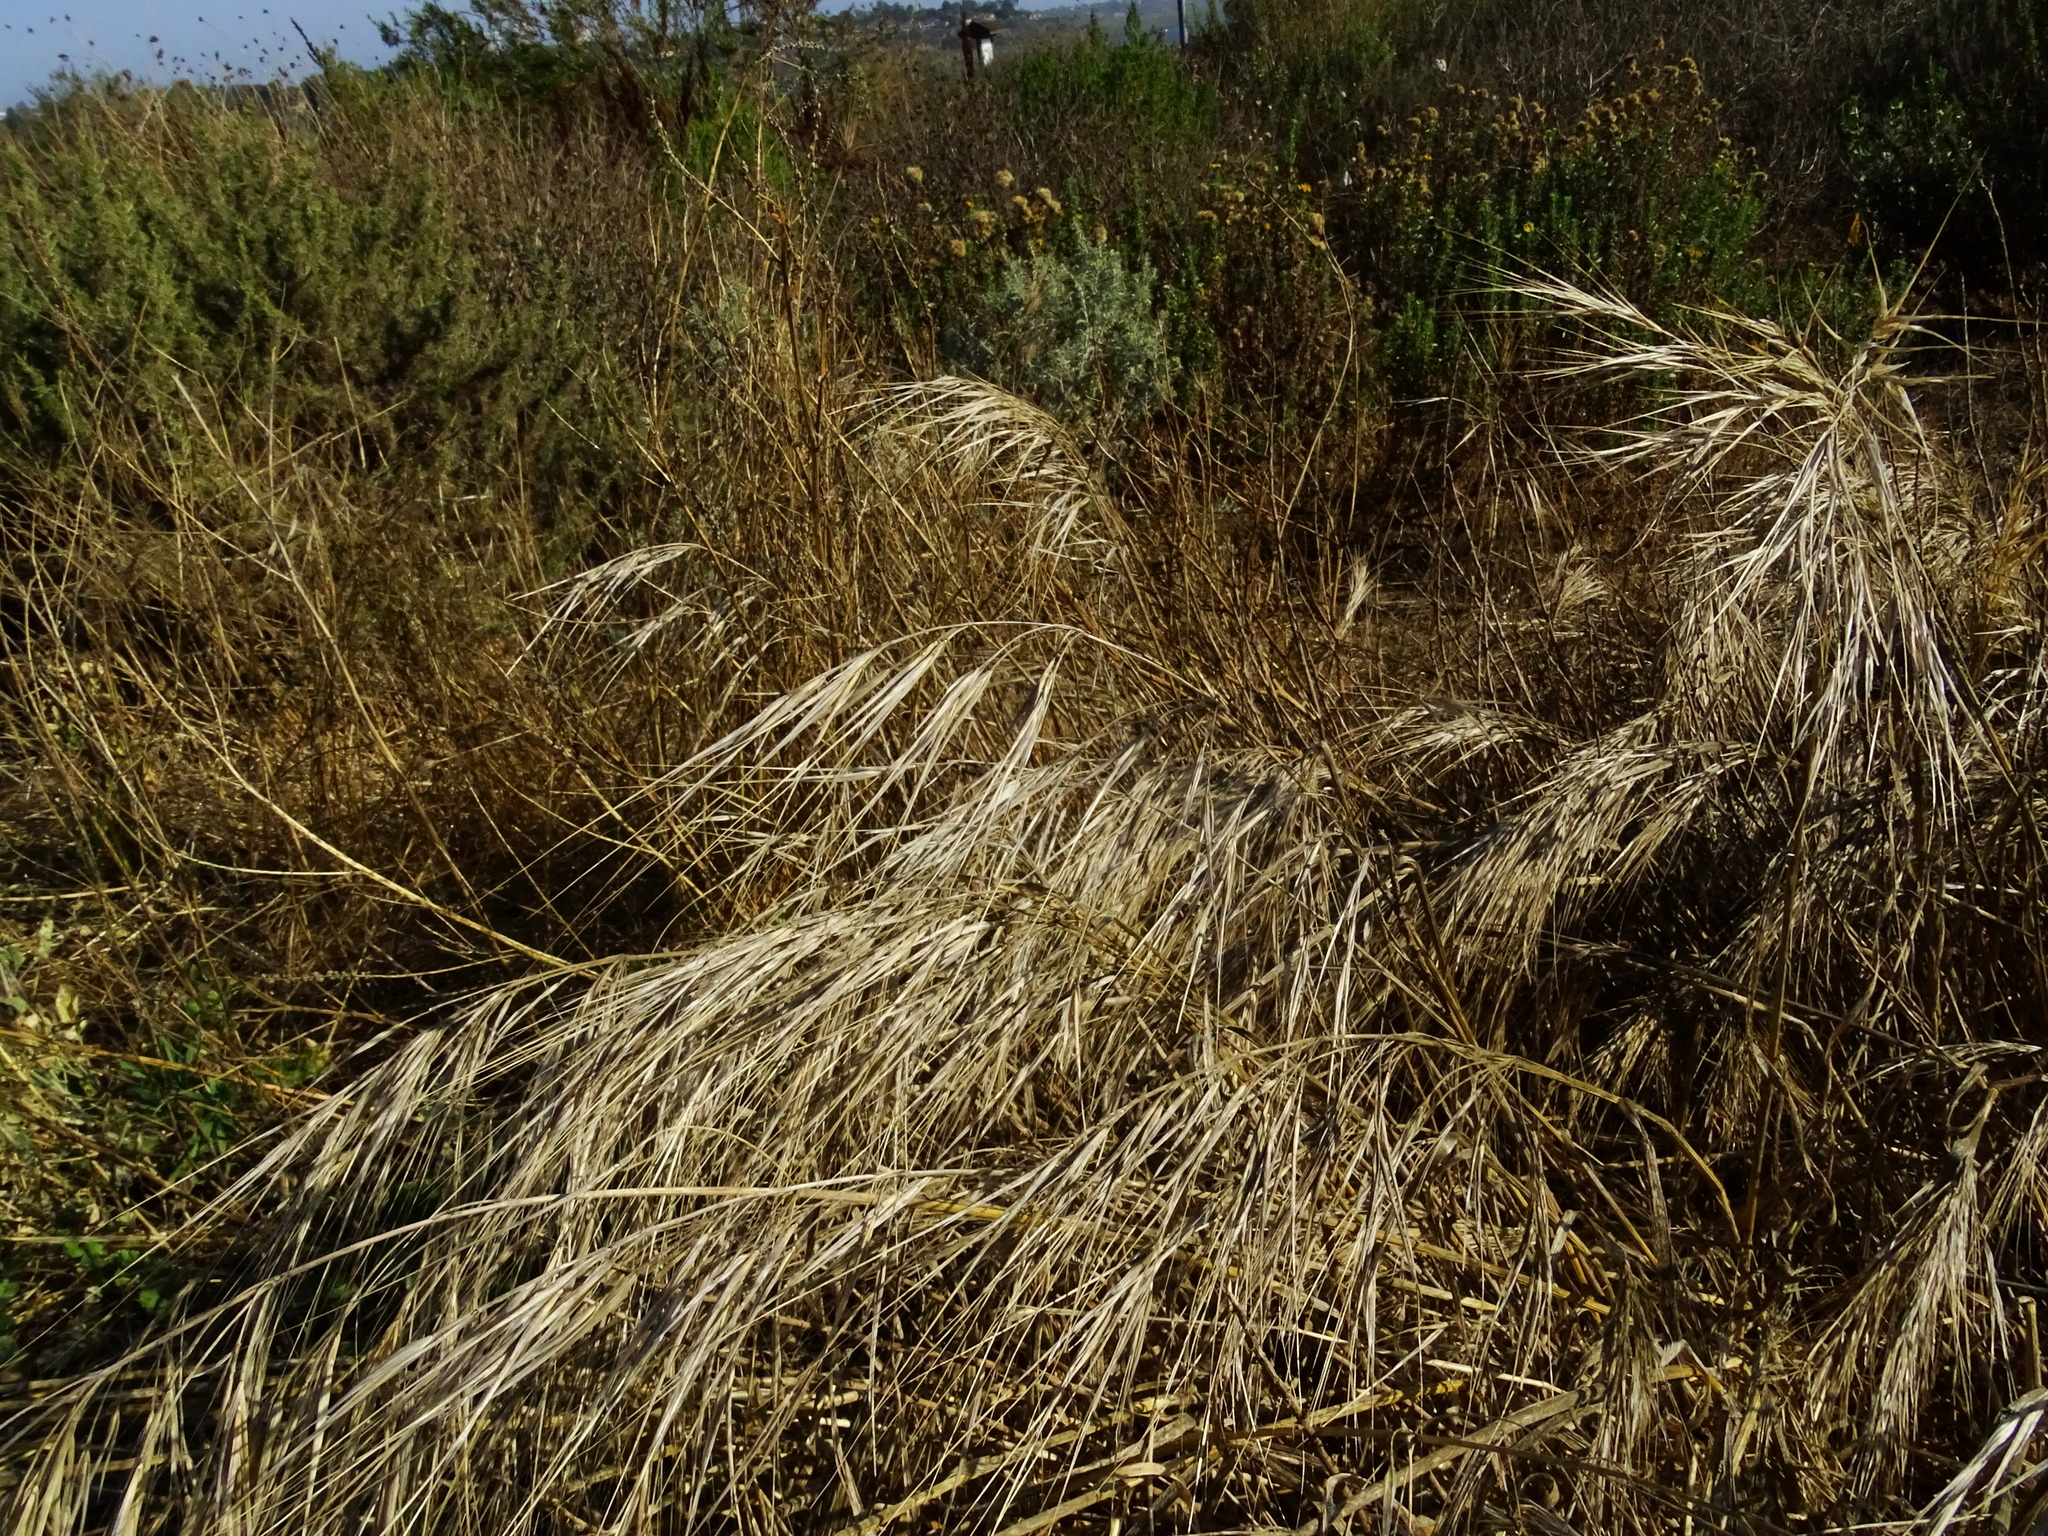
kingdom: Plantae
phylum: Tracheophyta
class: Liliopsida
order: Poales
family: Poaceae
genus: Bromus
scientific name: Bromus diandrus
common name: Ripgut brome
